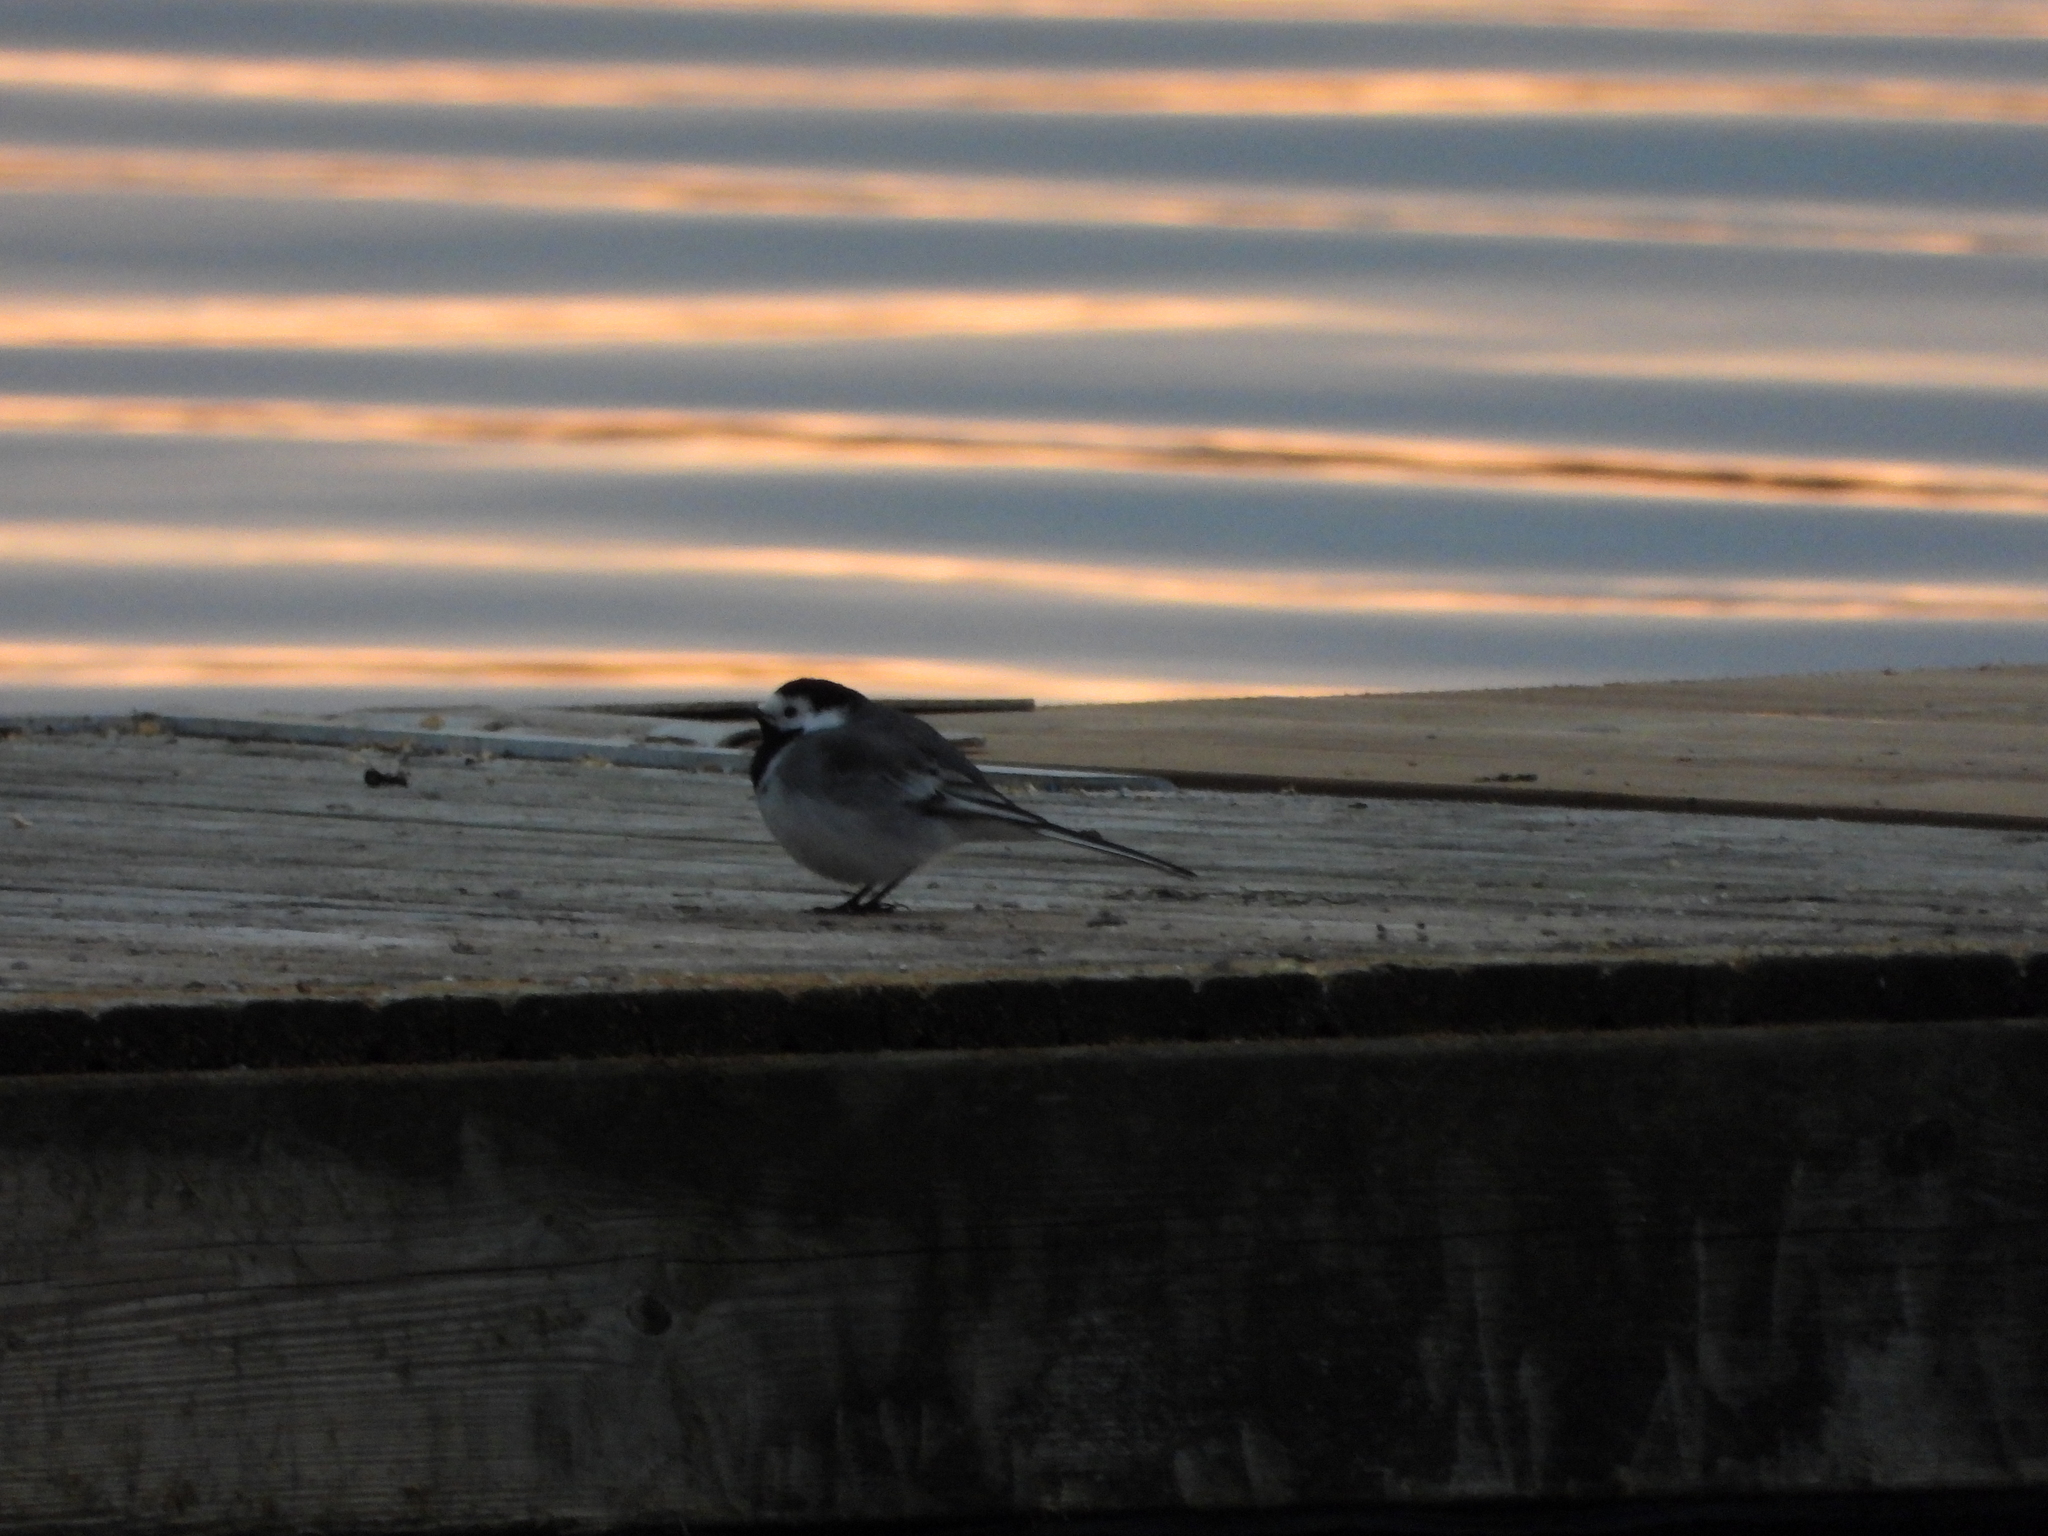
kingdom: Animalia
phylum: Chordata
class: Aves
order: Passeriformes
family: Motacillidae
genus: Motacilla
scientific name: Motacilla alba
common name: White wagtail
